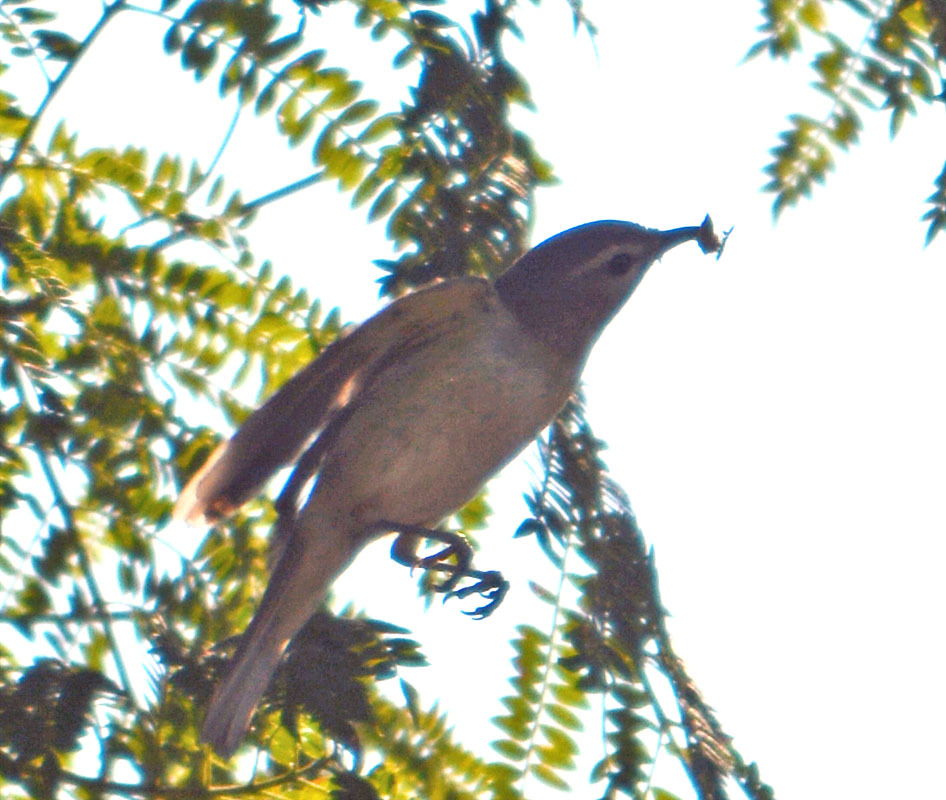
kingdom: Animalia
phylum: Chordata
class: Aves
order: Passeriformes
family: Vireonidae
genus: Vireo
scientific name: Vireo gilvus
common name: Warbling vireo
